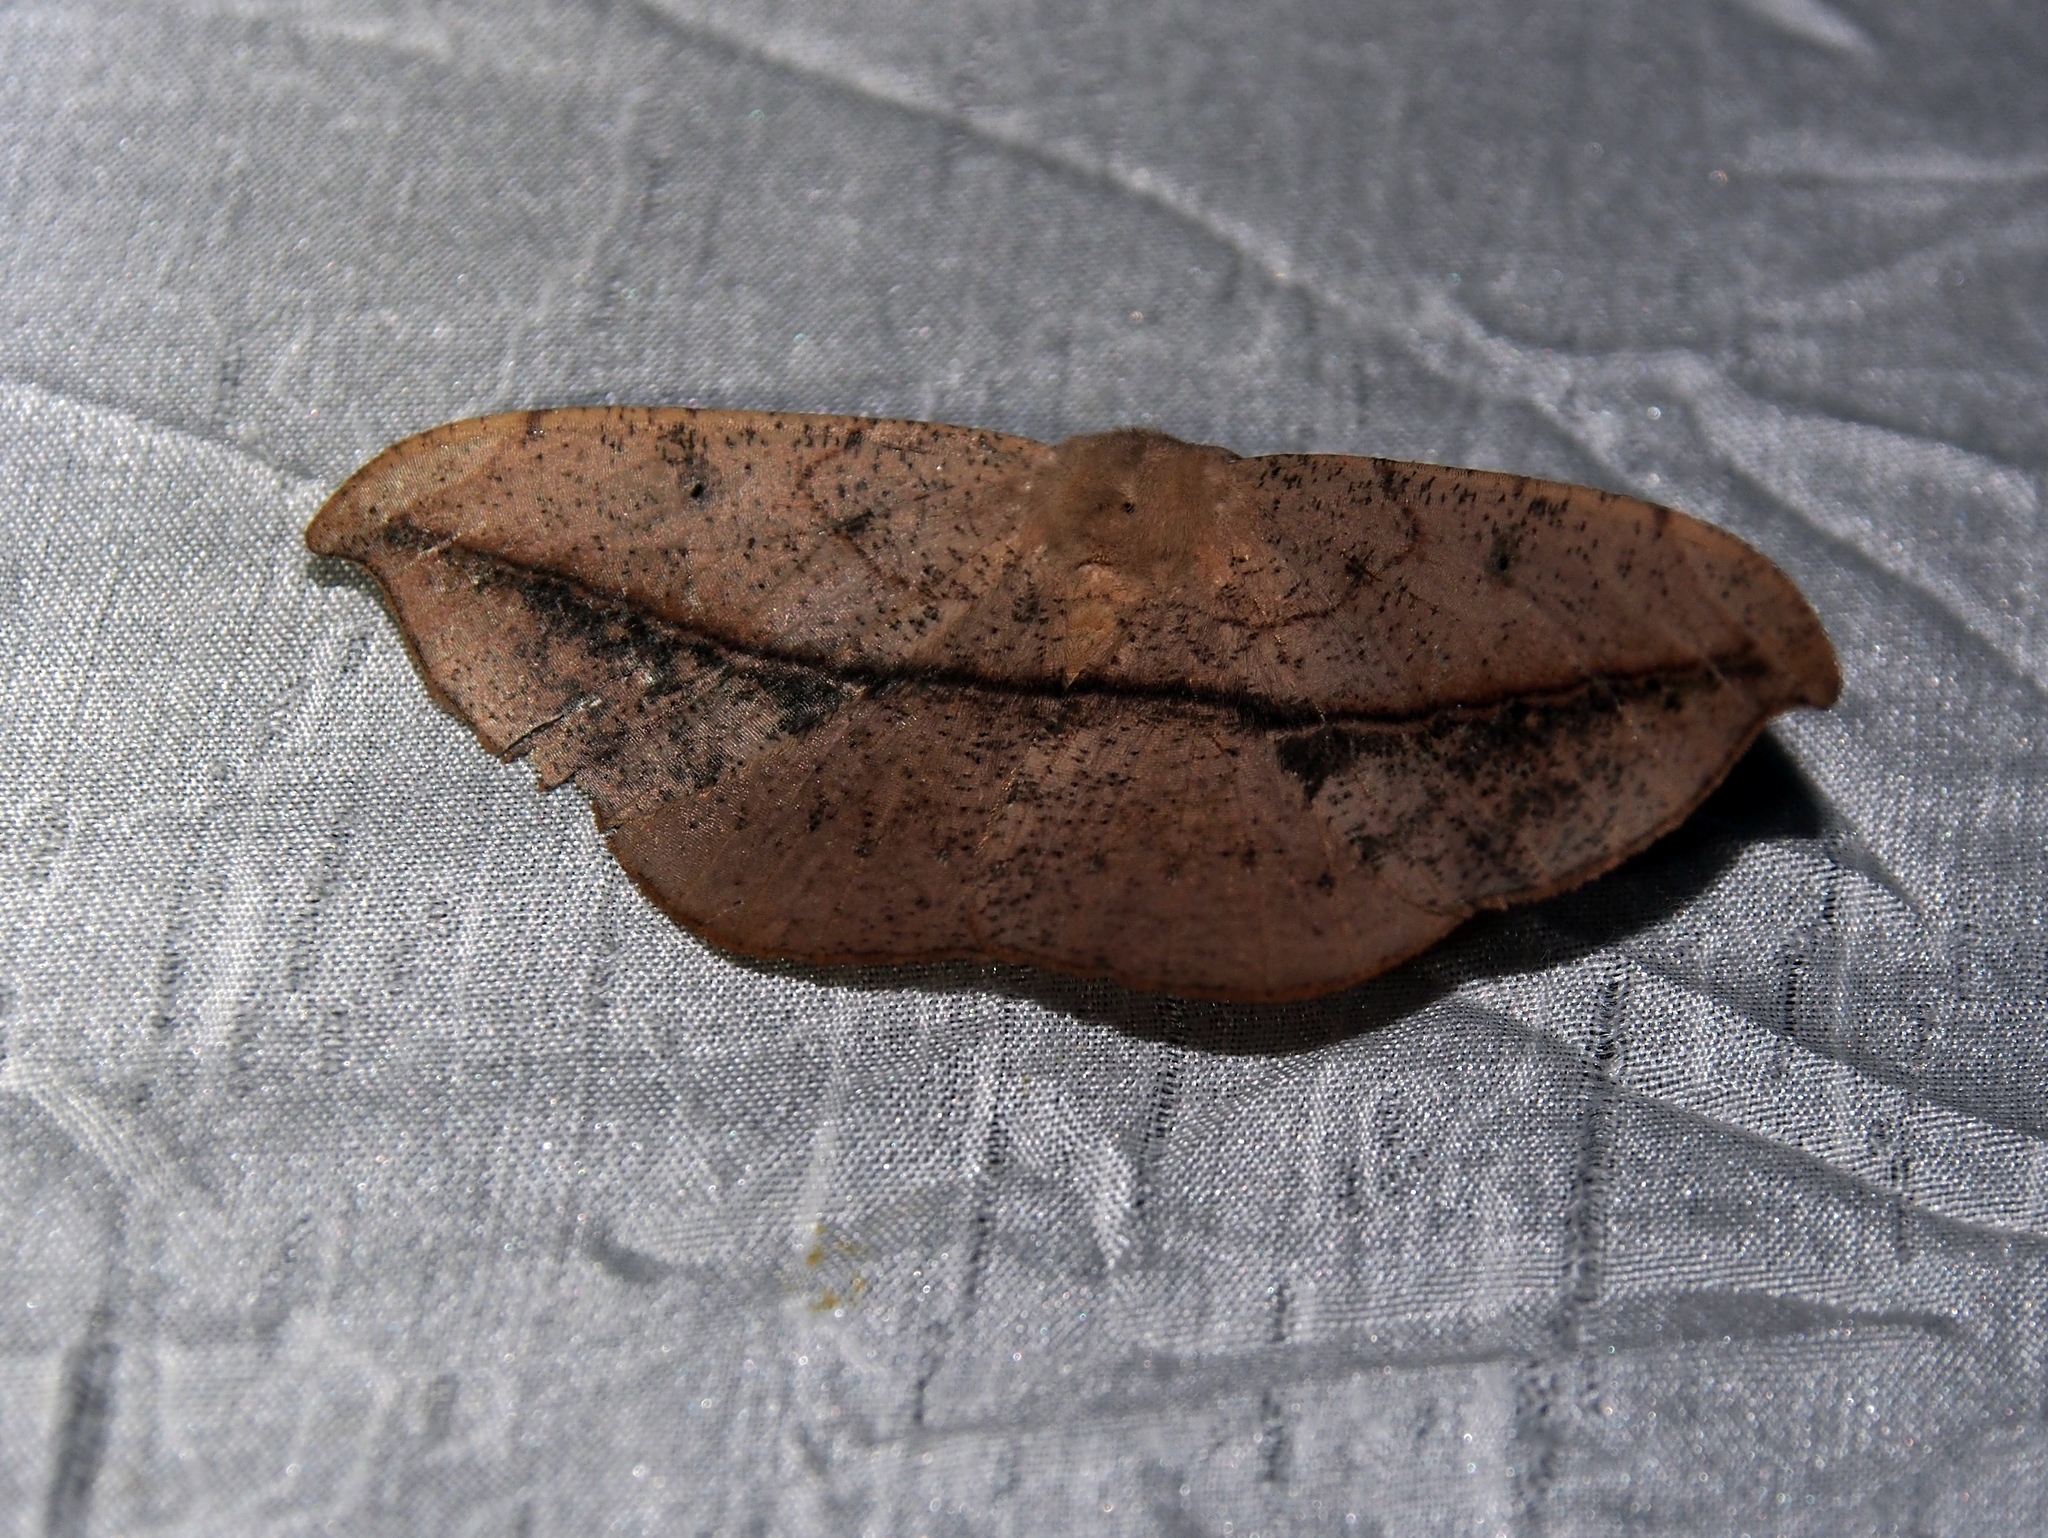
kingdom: Animalia
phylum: Arthropoda
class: Insecta
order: Lepidoptera
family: Geometridae
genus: Patalene
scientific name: Patalene hamulata
